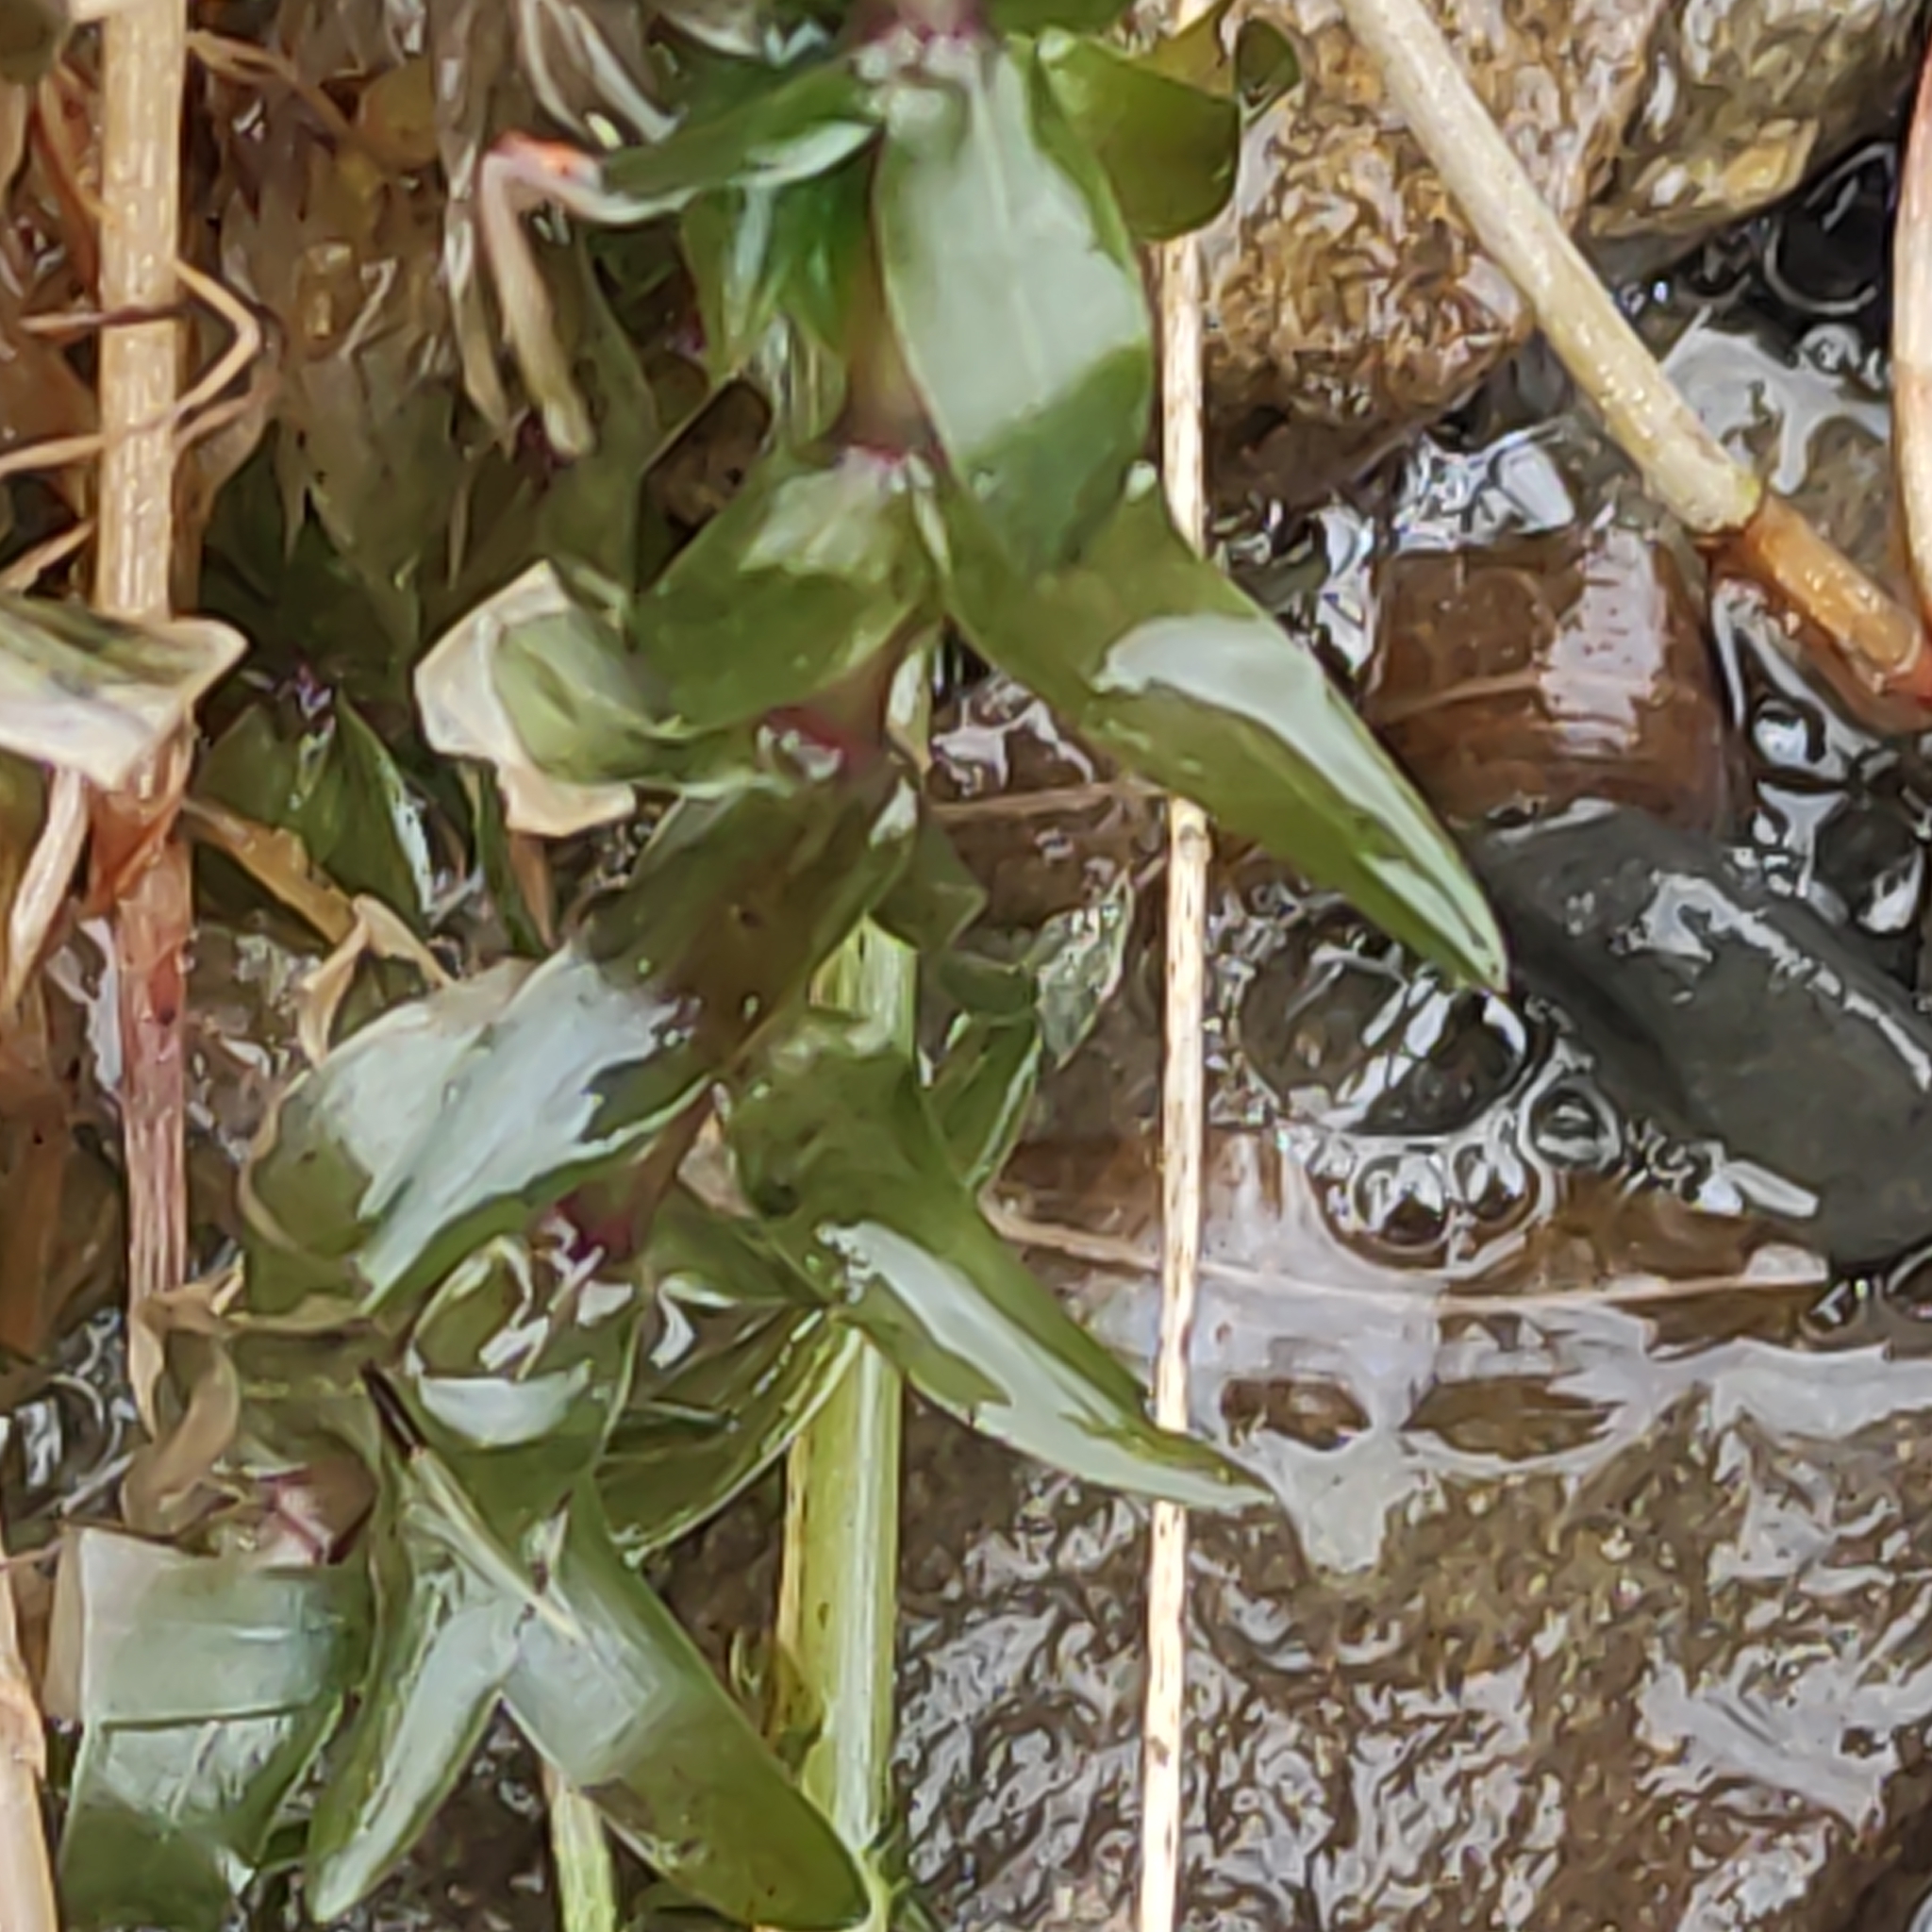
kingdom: Plantae
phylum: Tracheophyta
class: Liliopsida
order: Alismatales
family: Hydrocharitaceae
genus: Elodea
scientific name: Elodea canadensis
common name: Canadian waterweed
